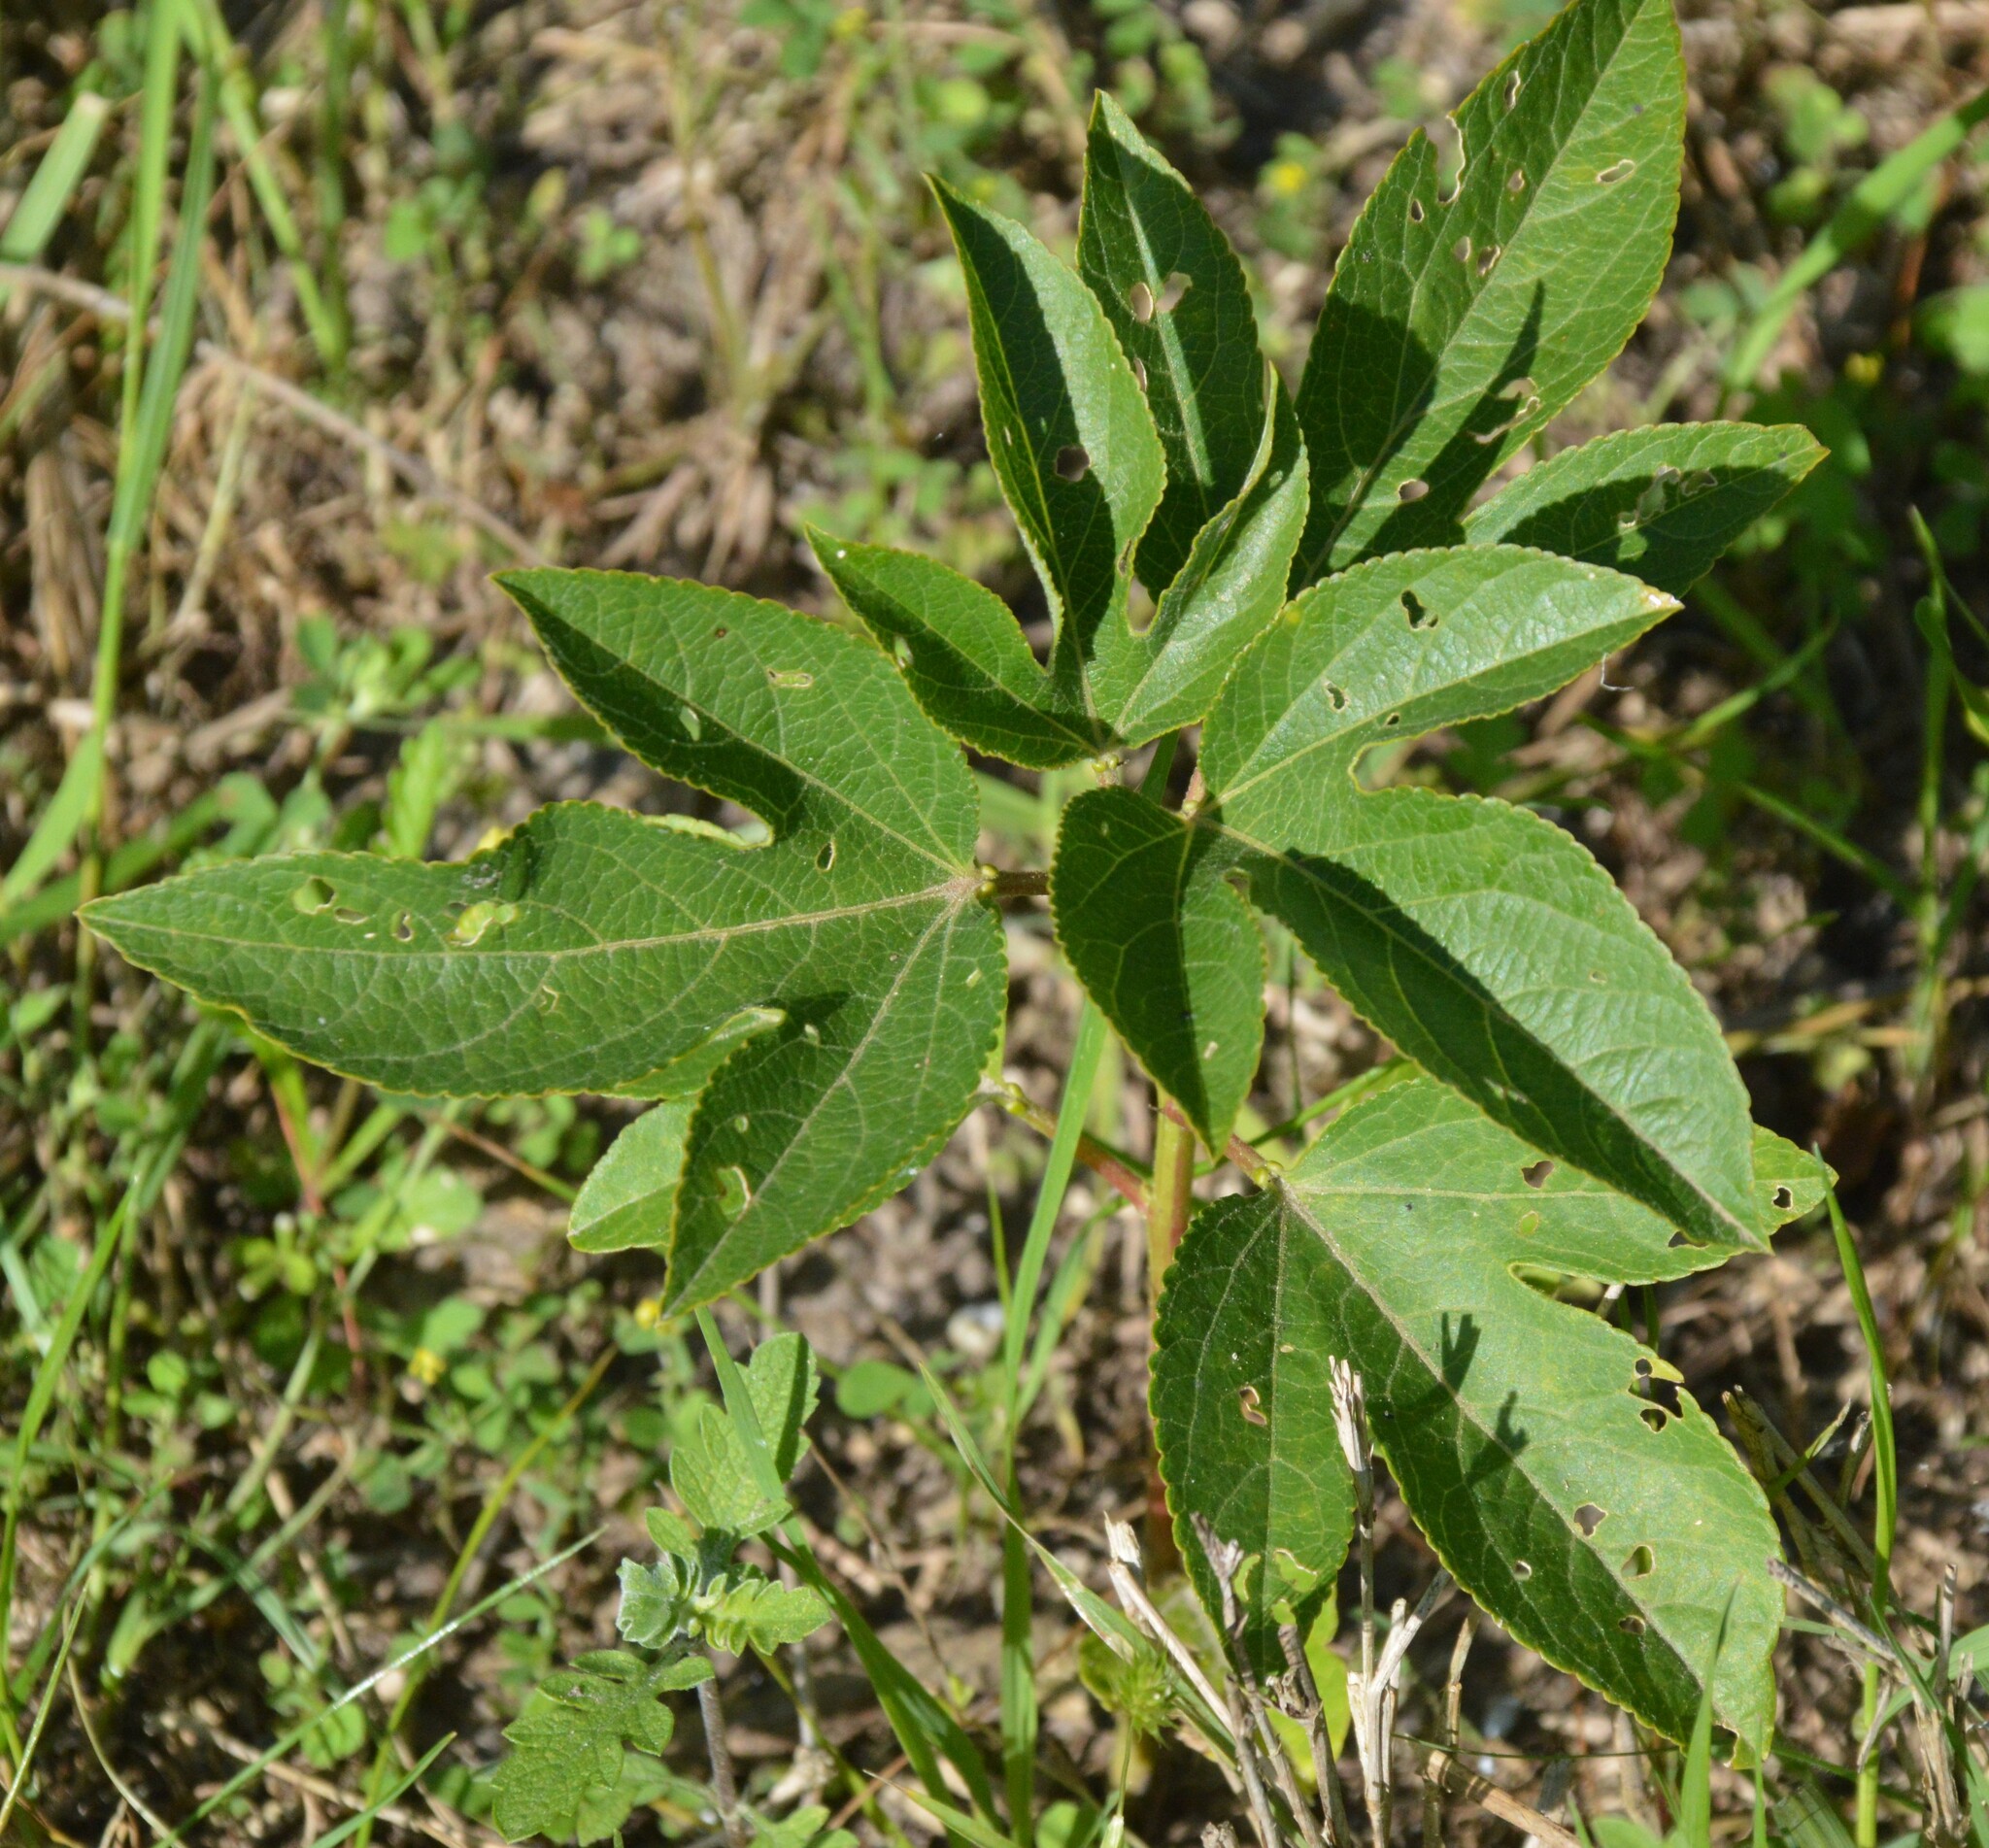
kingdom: Plantae
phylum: Tracheophyta
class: Magnoliopsida
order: Malpighiales
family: Passifloraceae
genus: Passiflora
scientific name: Passiflora incarnata
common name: Apricot-vine
